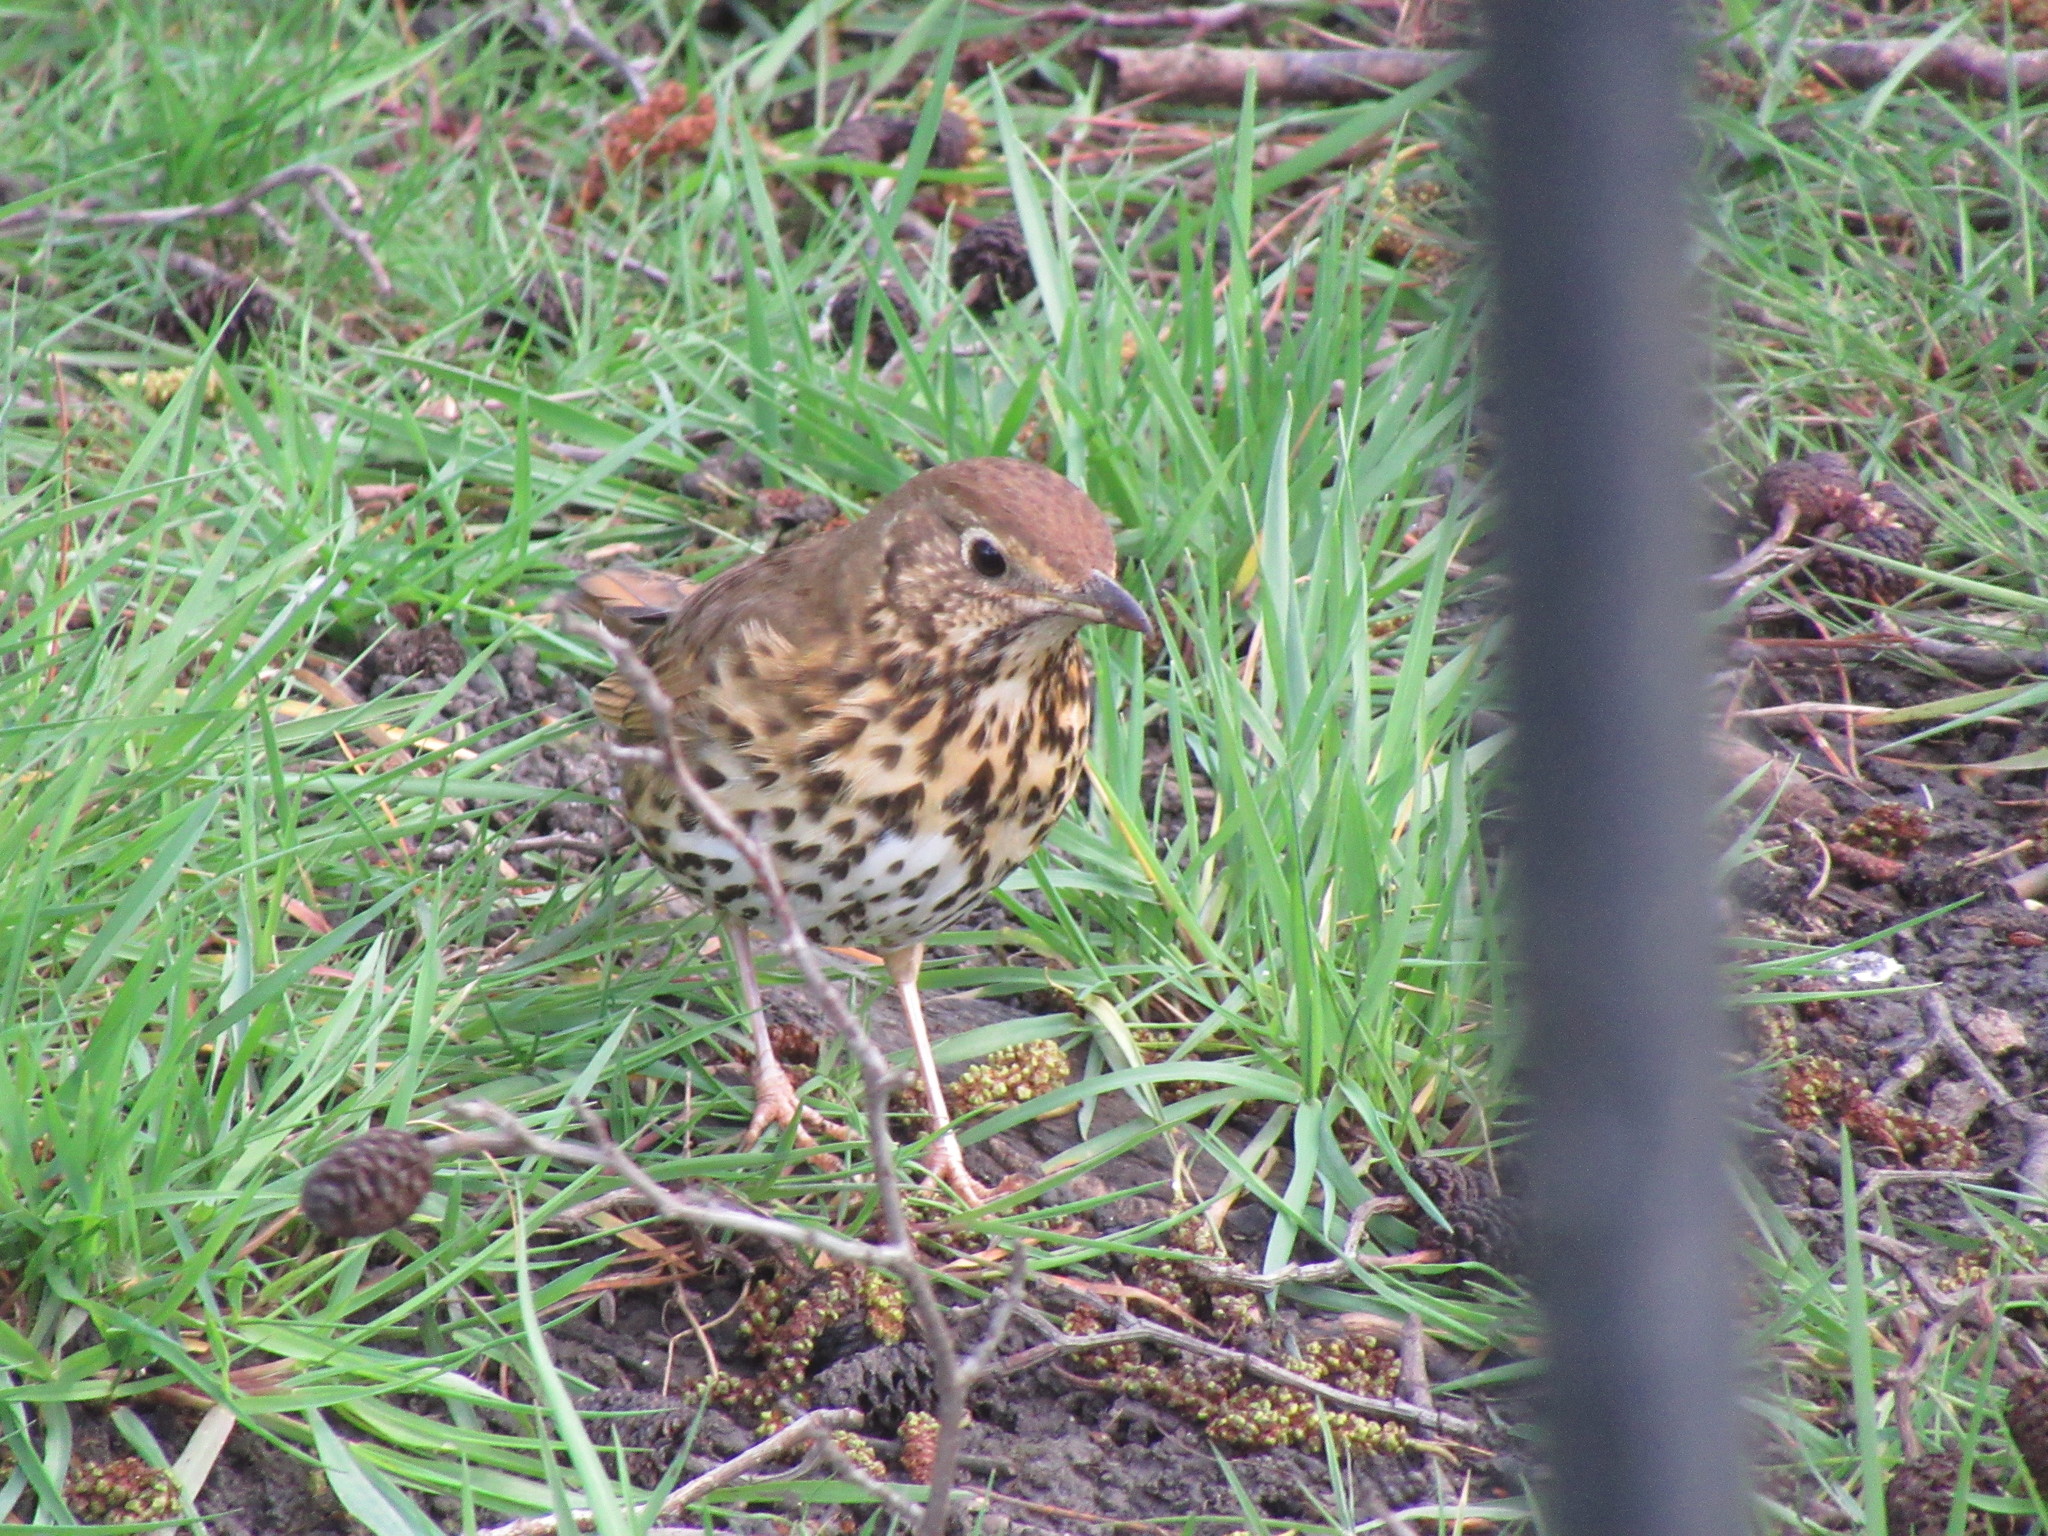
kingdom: Animalia
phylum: Chordata
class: Aves
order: Passeriformes
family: Turdidae
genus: Turdus
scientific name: Turdus philomelos
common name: Song thrush
